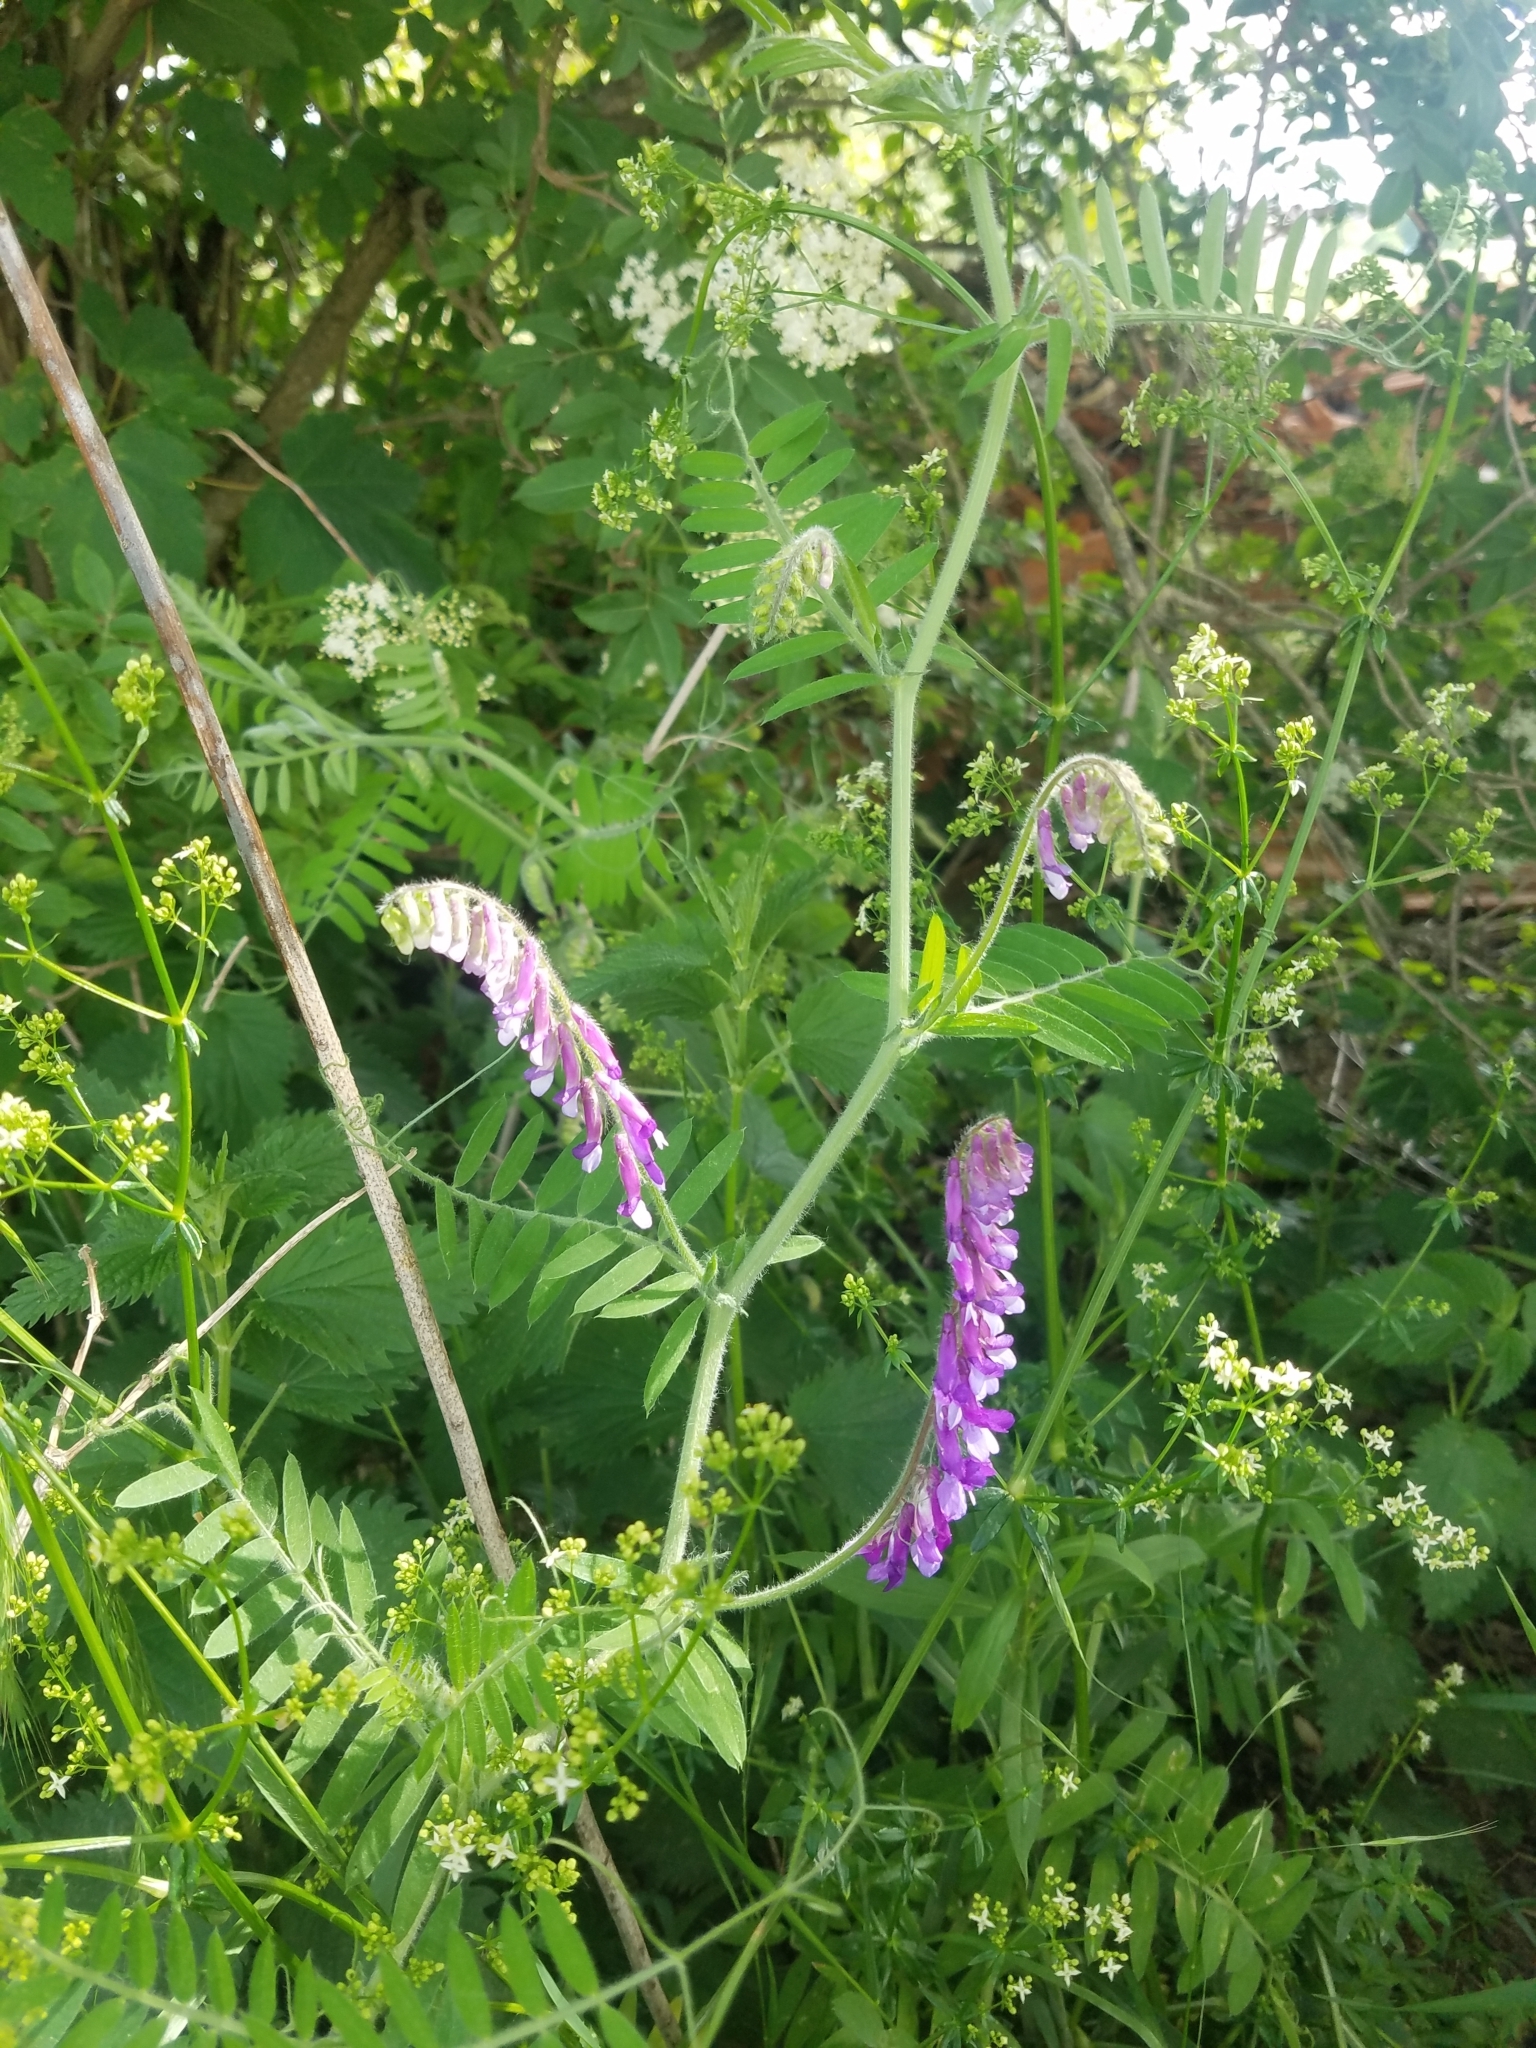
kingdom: Plantae
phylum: Tracheophyta
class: Magnoliopsida
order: Fabales
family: Fabaceae
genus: Vicia
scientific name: Vicia villosa
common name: Fodder vetch
